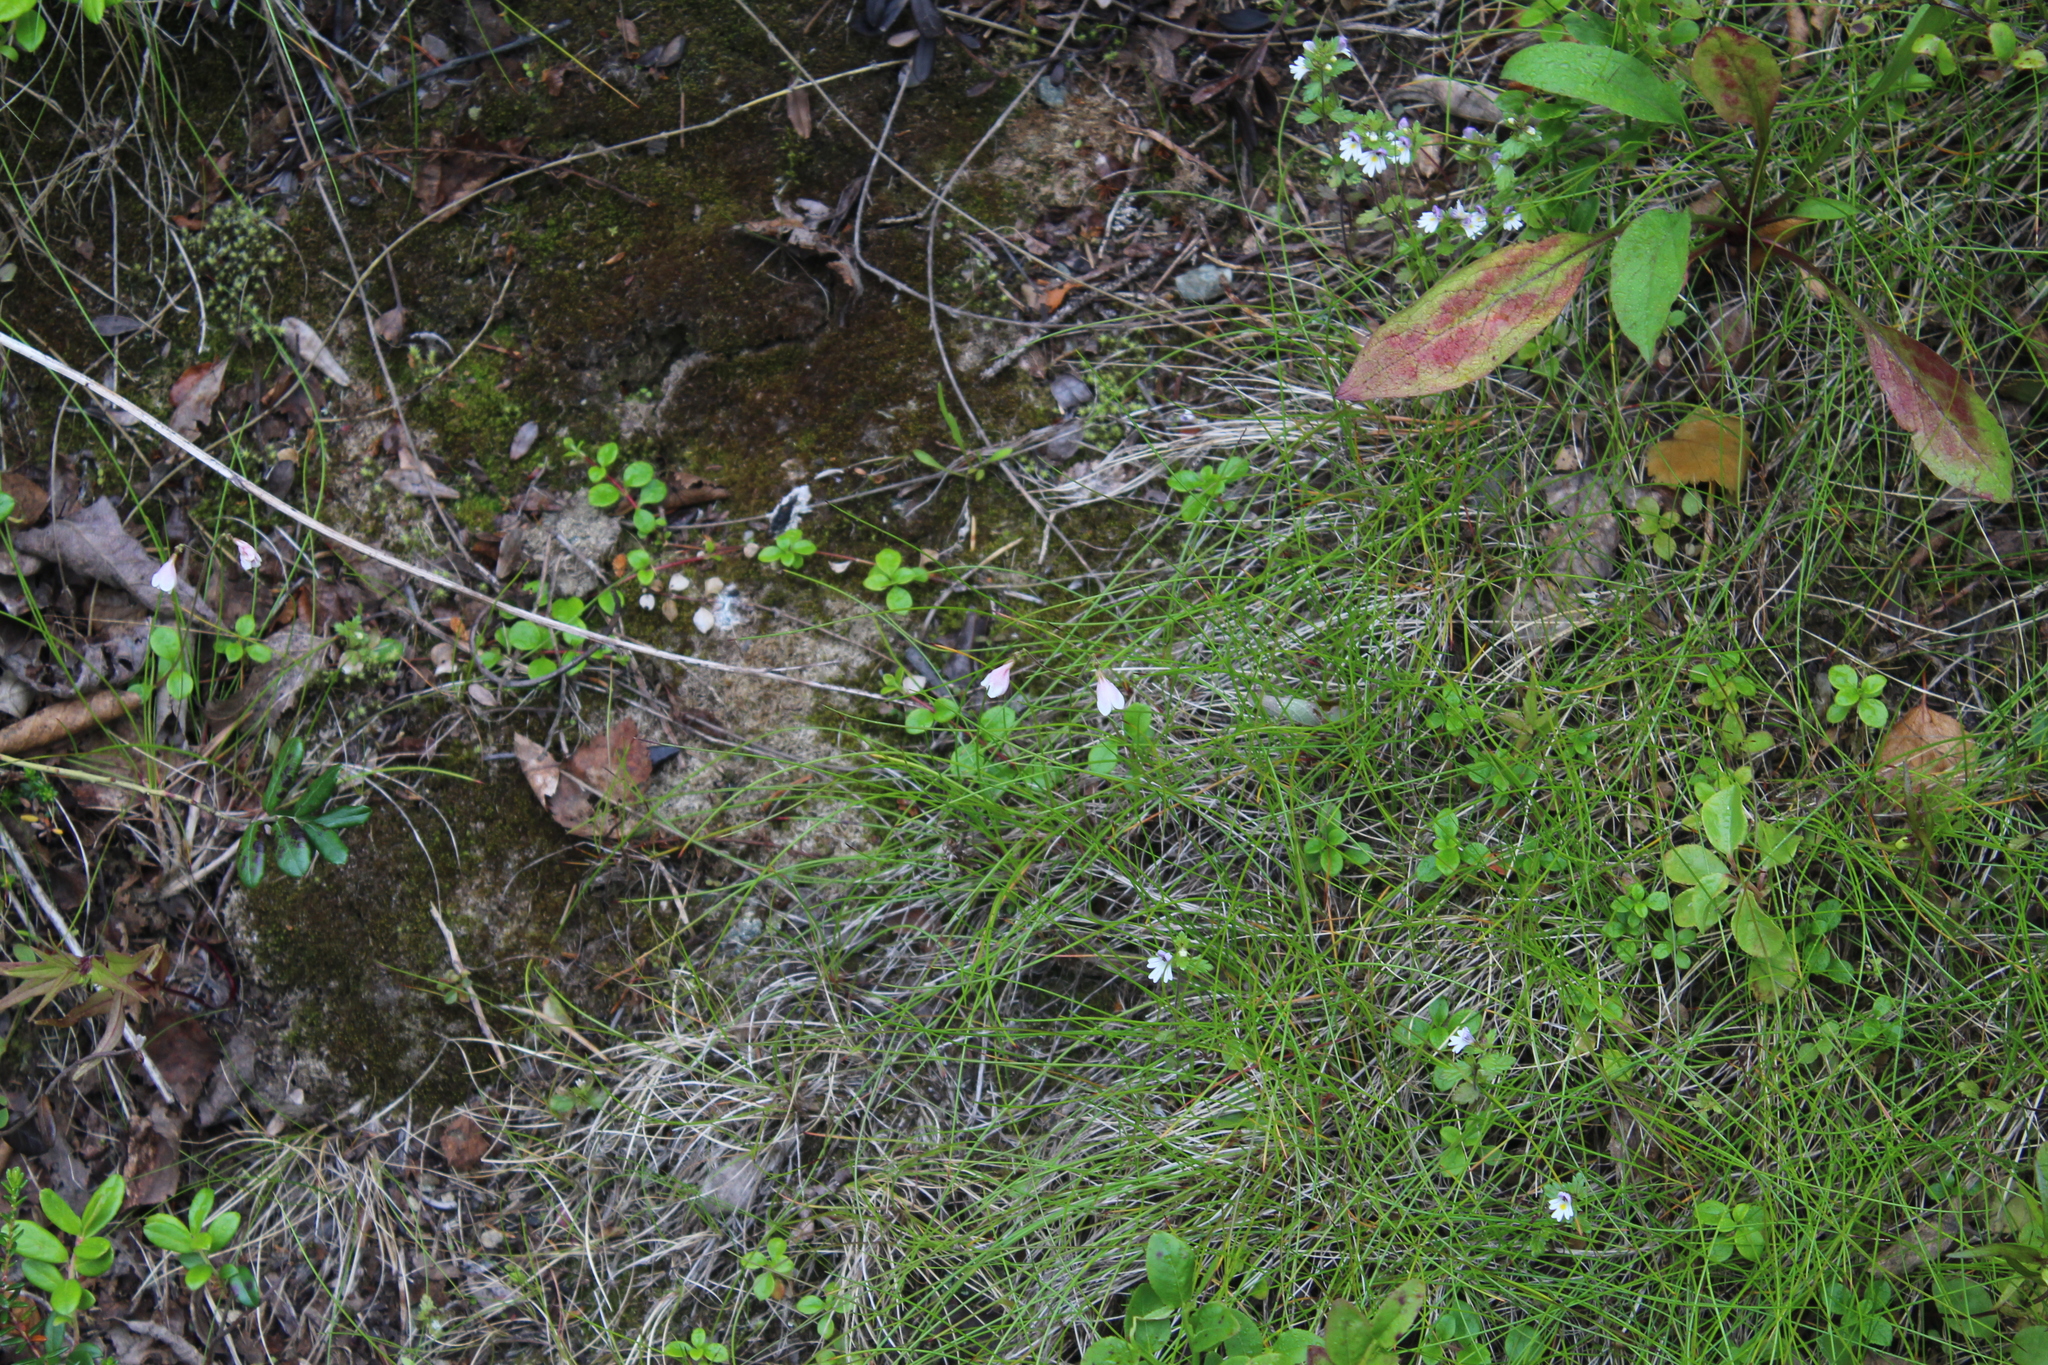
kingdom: Plantae
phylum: Tracheophyta
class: Magnoliopsida
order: Dipsacales
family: Caprifoliaceae
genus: Linnaea
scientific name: Linnaea borealis
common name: Twinflower
